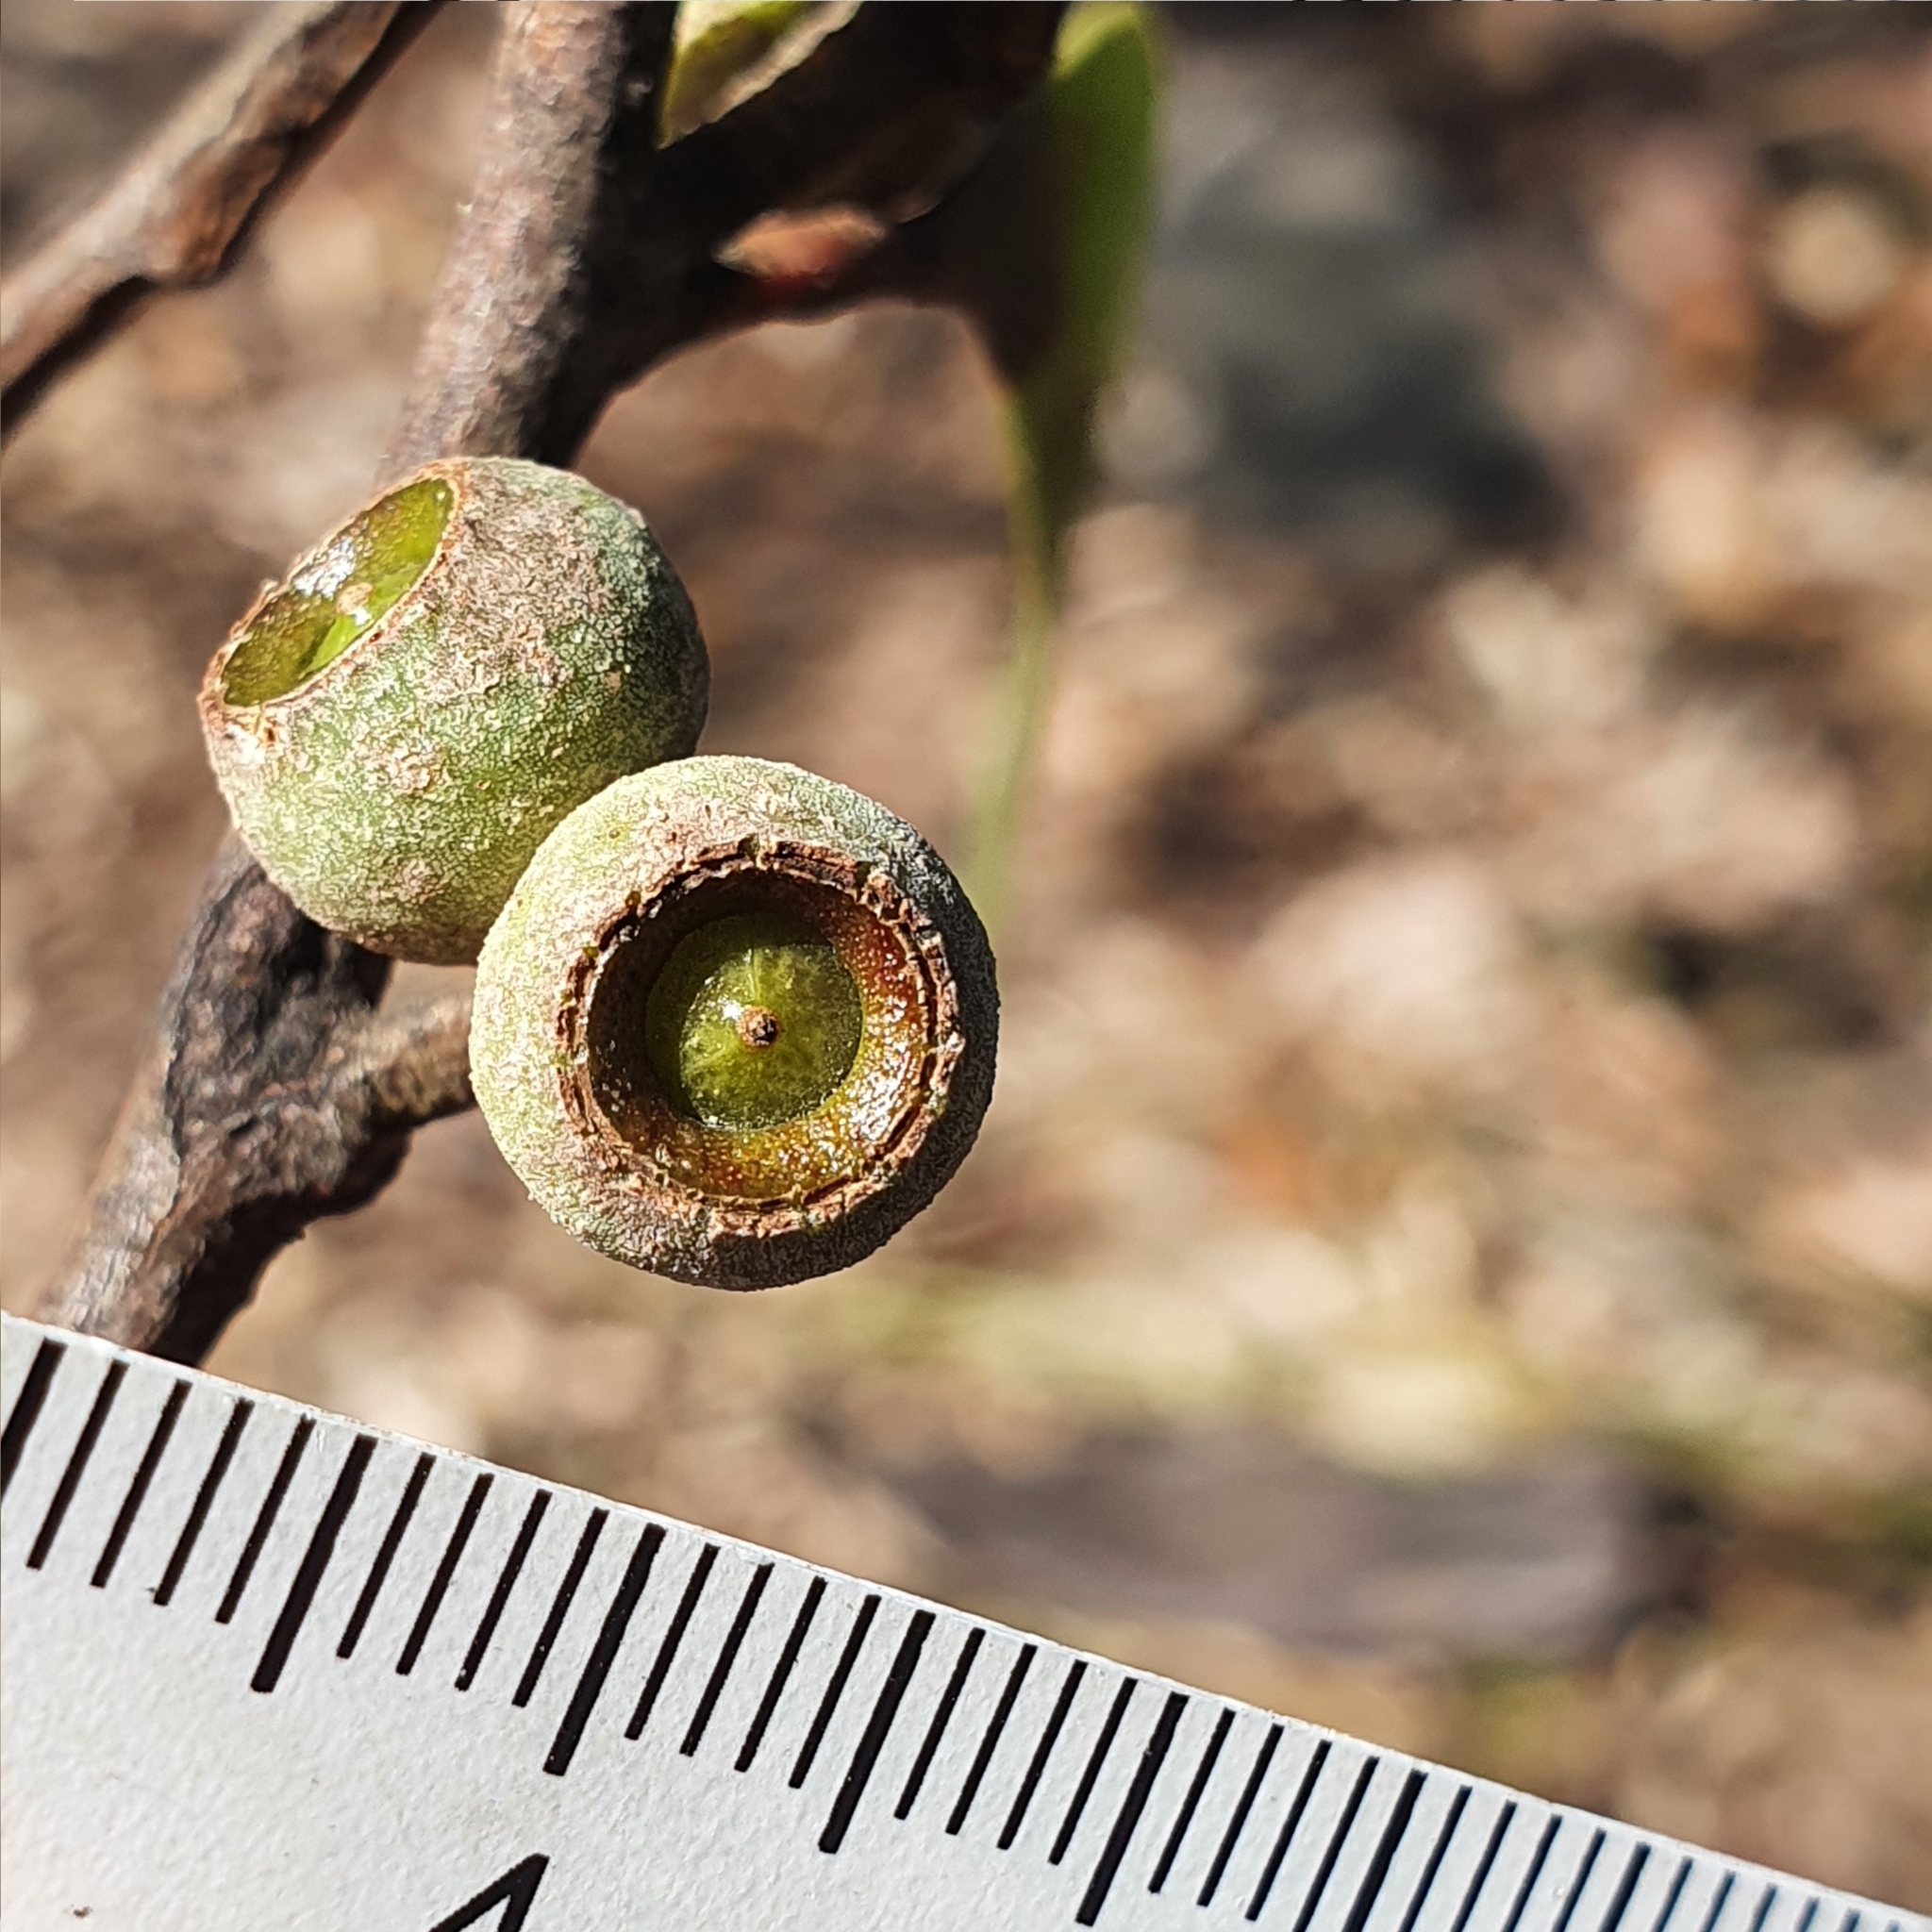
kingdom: Plantae
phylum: Tracheophyta
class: Magnoliopsida
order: Myrtales
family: Myrtaceae
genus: Eucalyptus
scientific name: Eucalyptus pilularis
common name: Blackbutt
